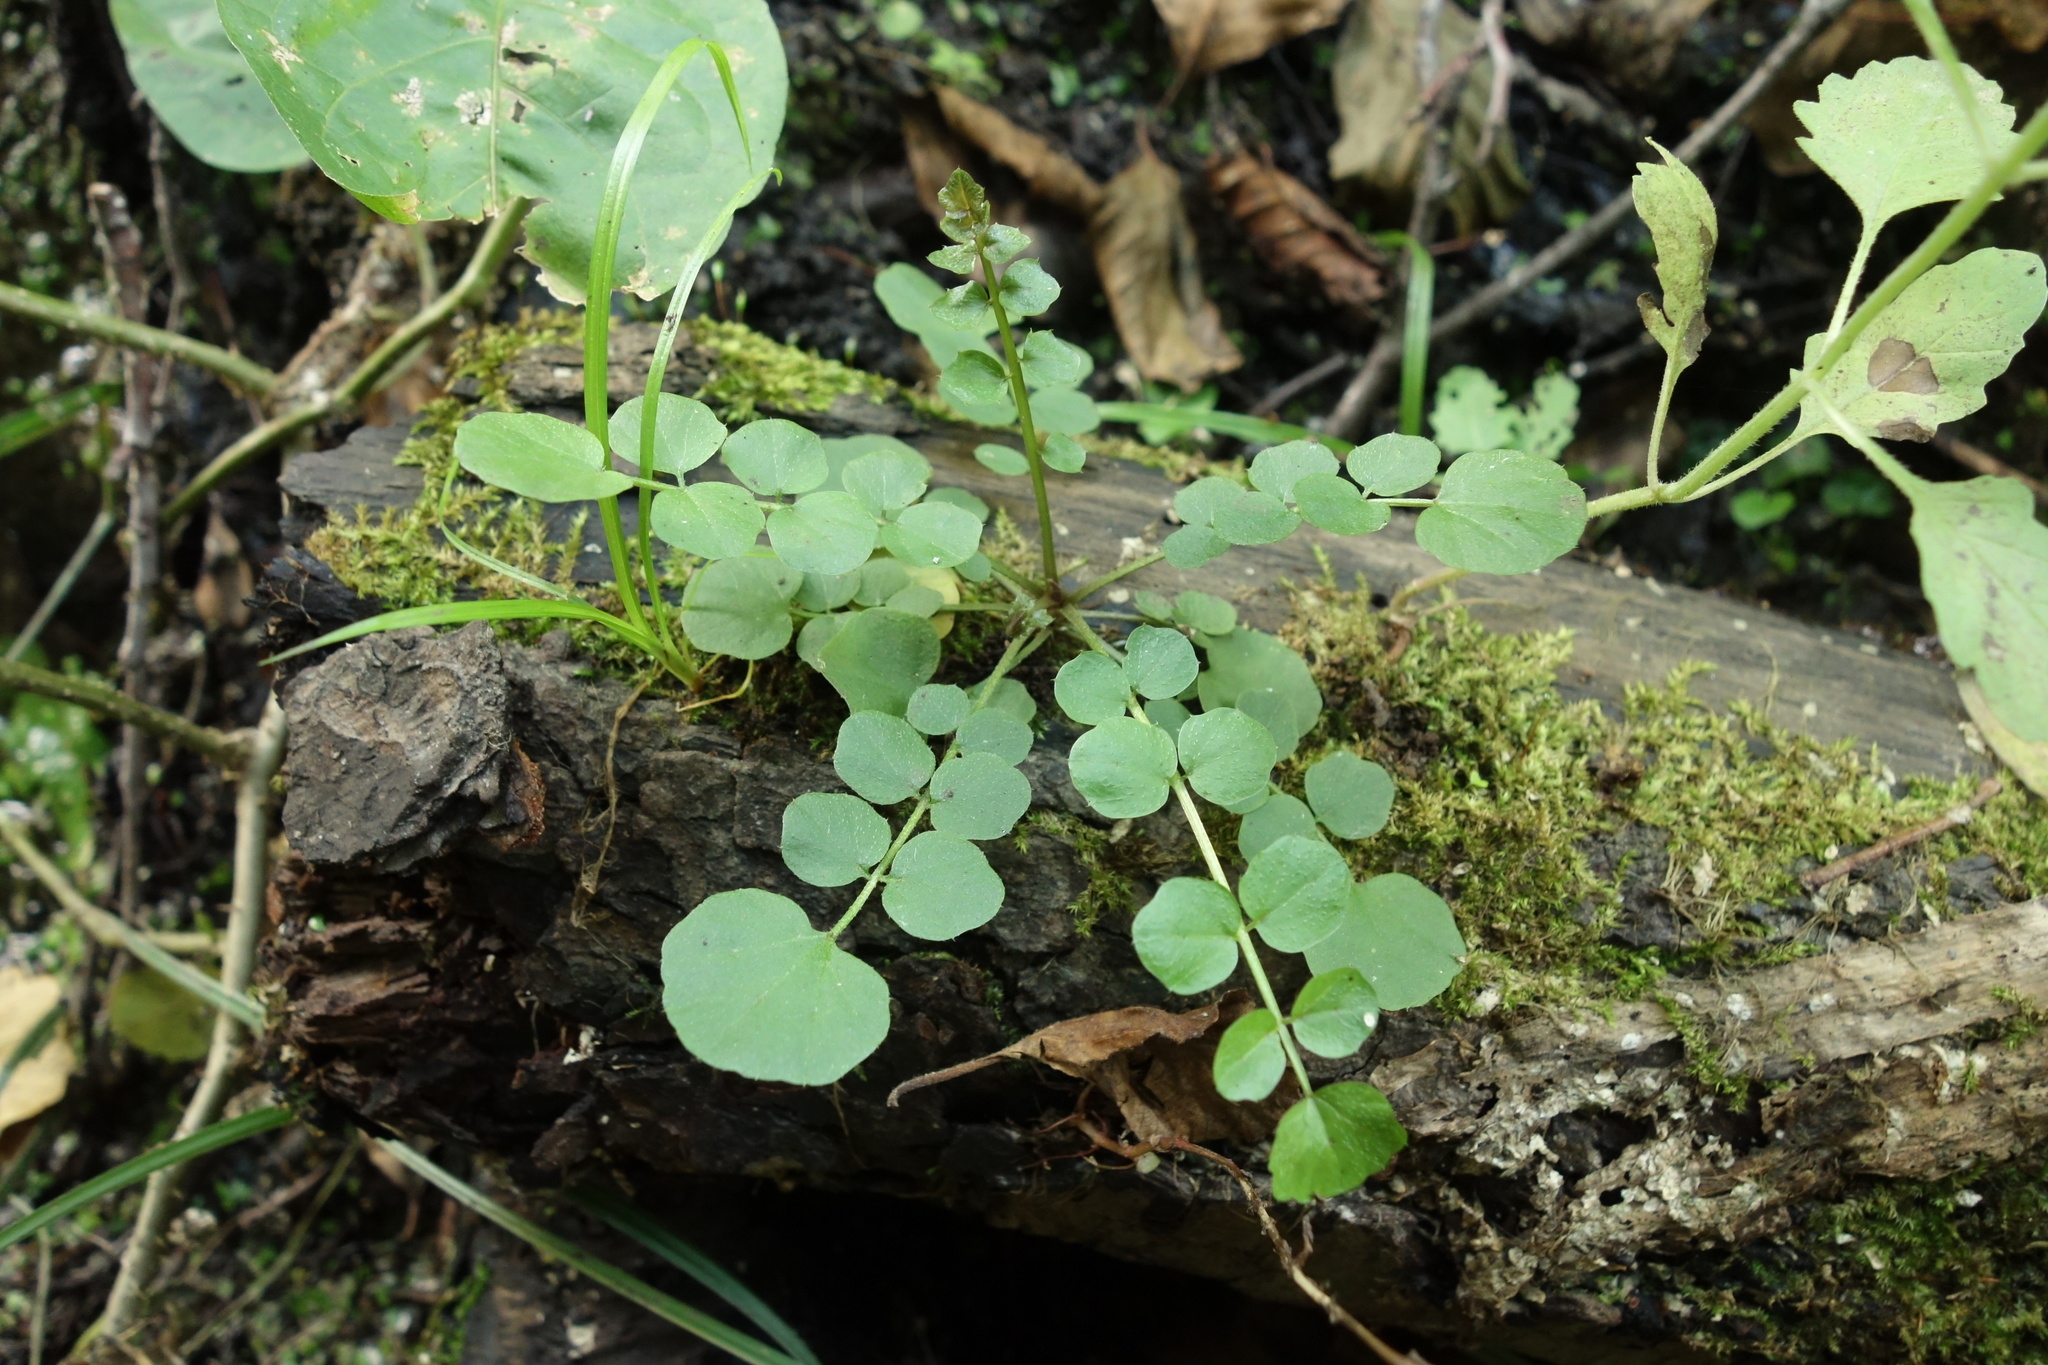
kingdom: Plantae
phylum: Tracheophyta
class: Magnoliopsida
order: Brassicales
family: Brassicaceae
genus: Cardamine
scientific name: Cardamine dentata
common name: Toothed bittercress
